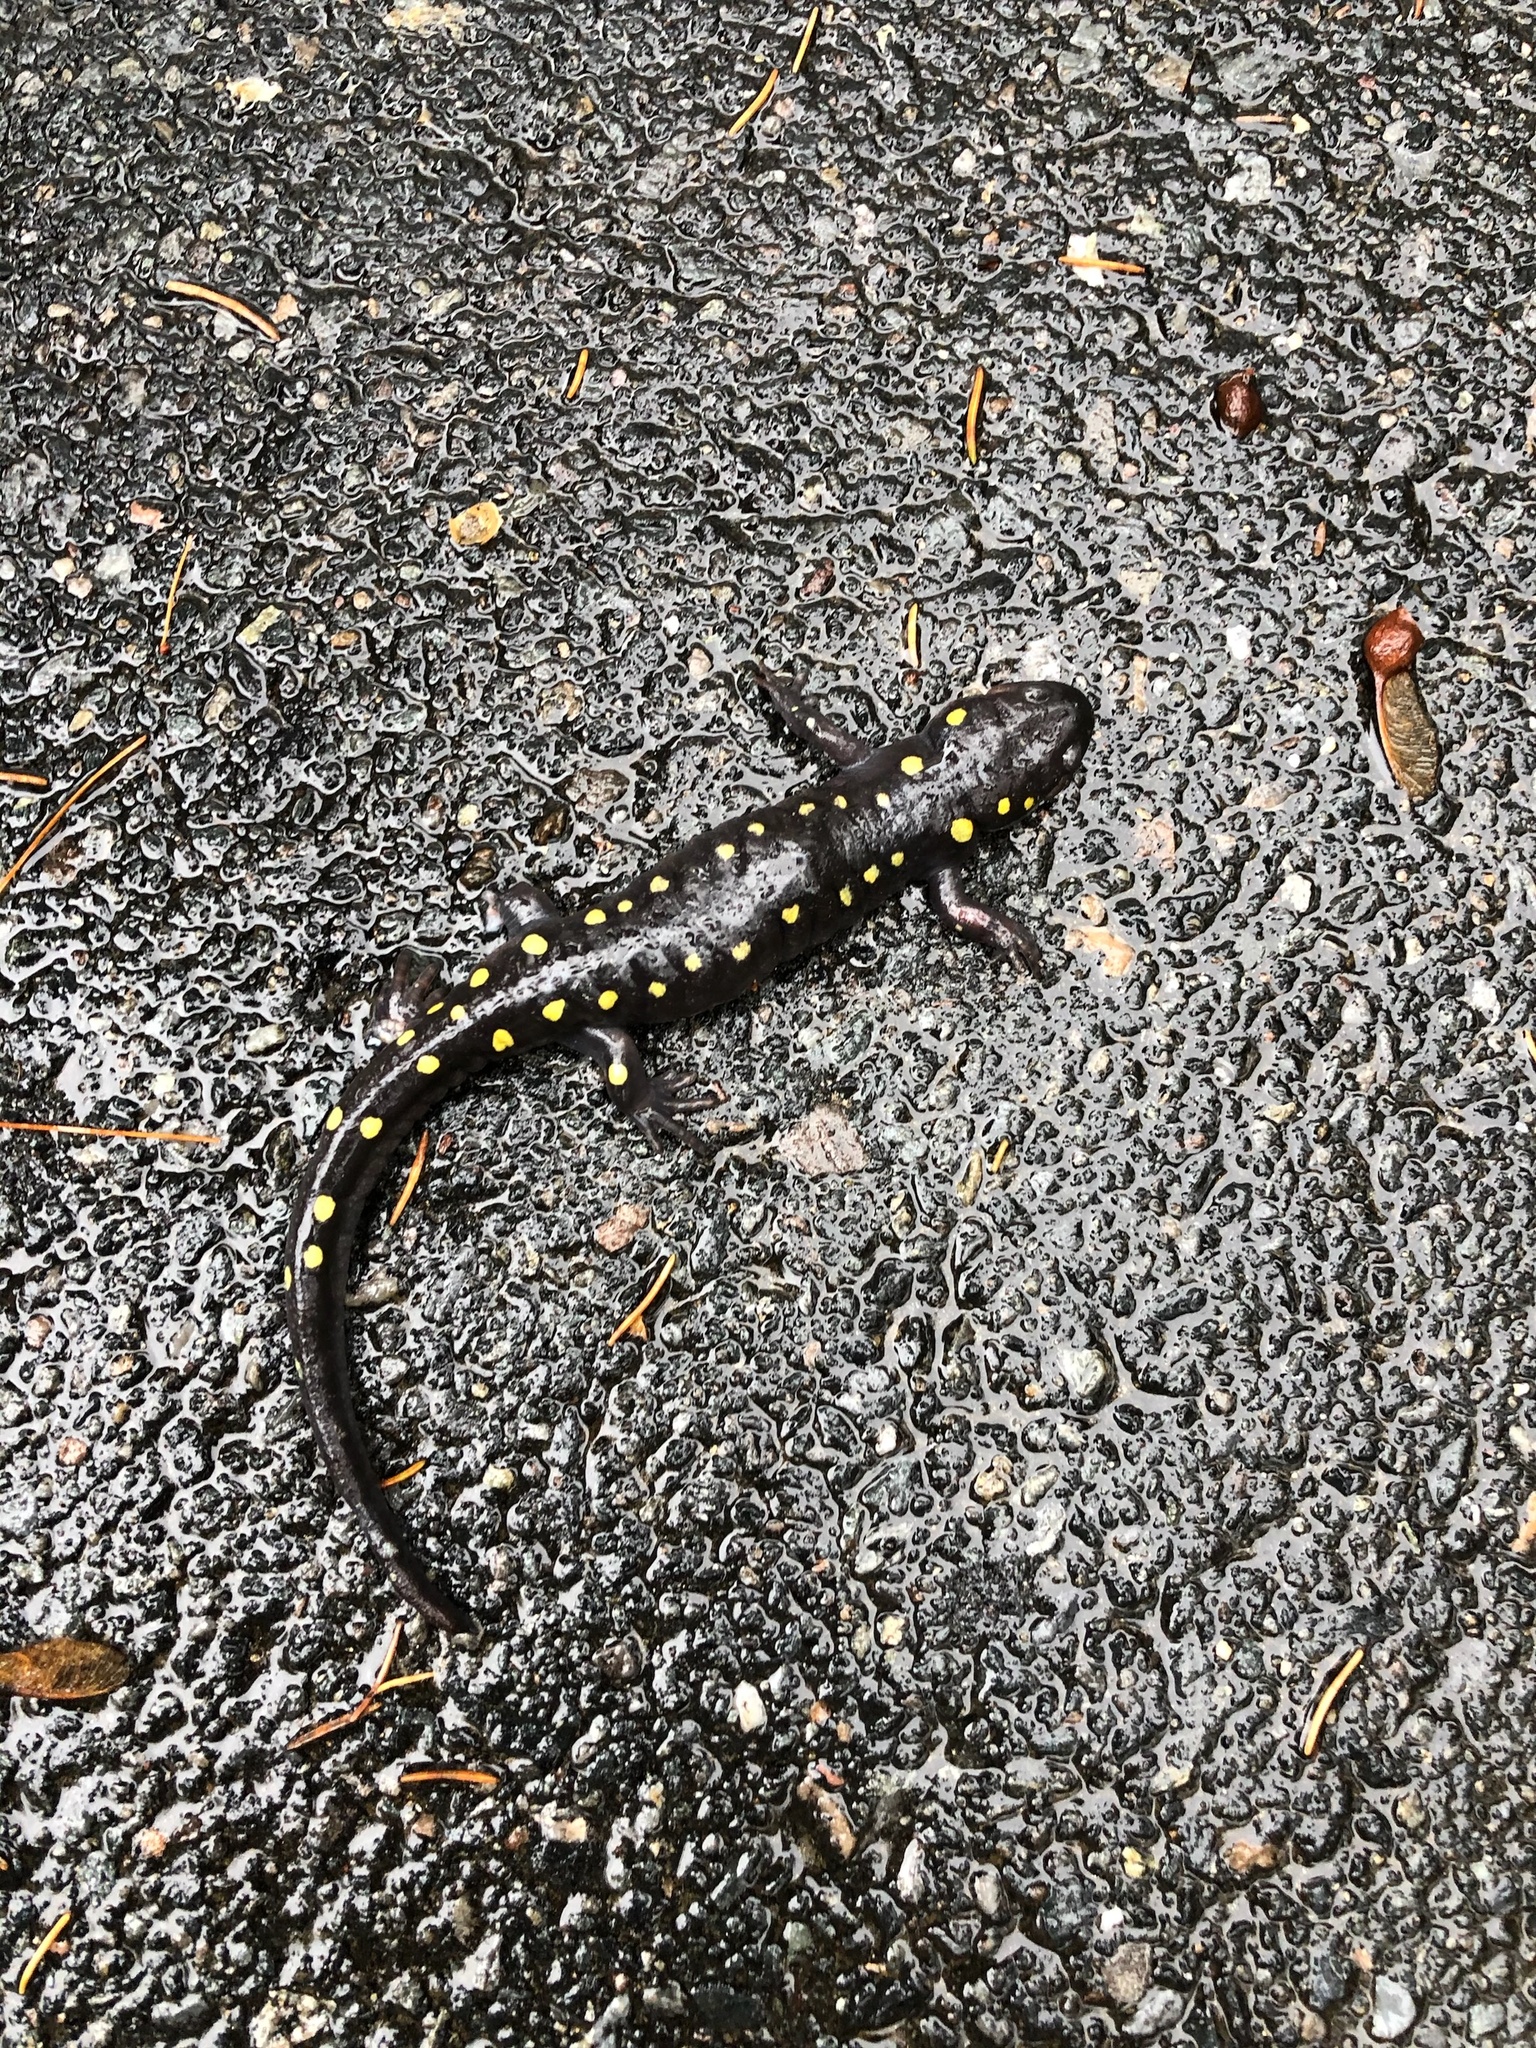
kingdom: Animalia
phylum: Chordata
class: Amphibia
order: Caudata
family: Ambystomatidae
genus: Ambystoma
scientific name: Ambystoma maculatum
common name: Spotted salamander
